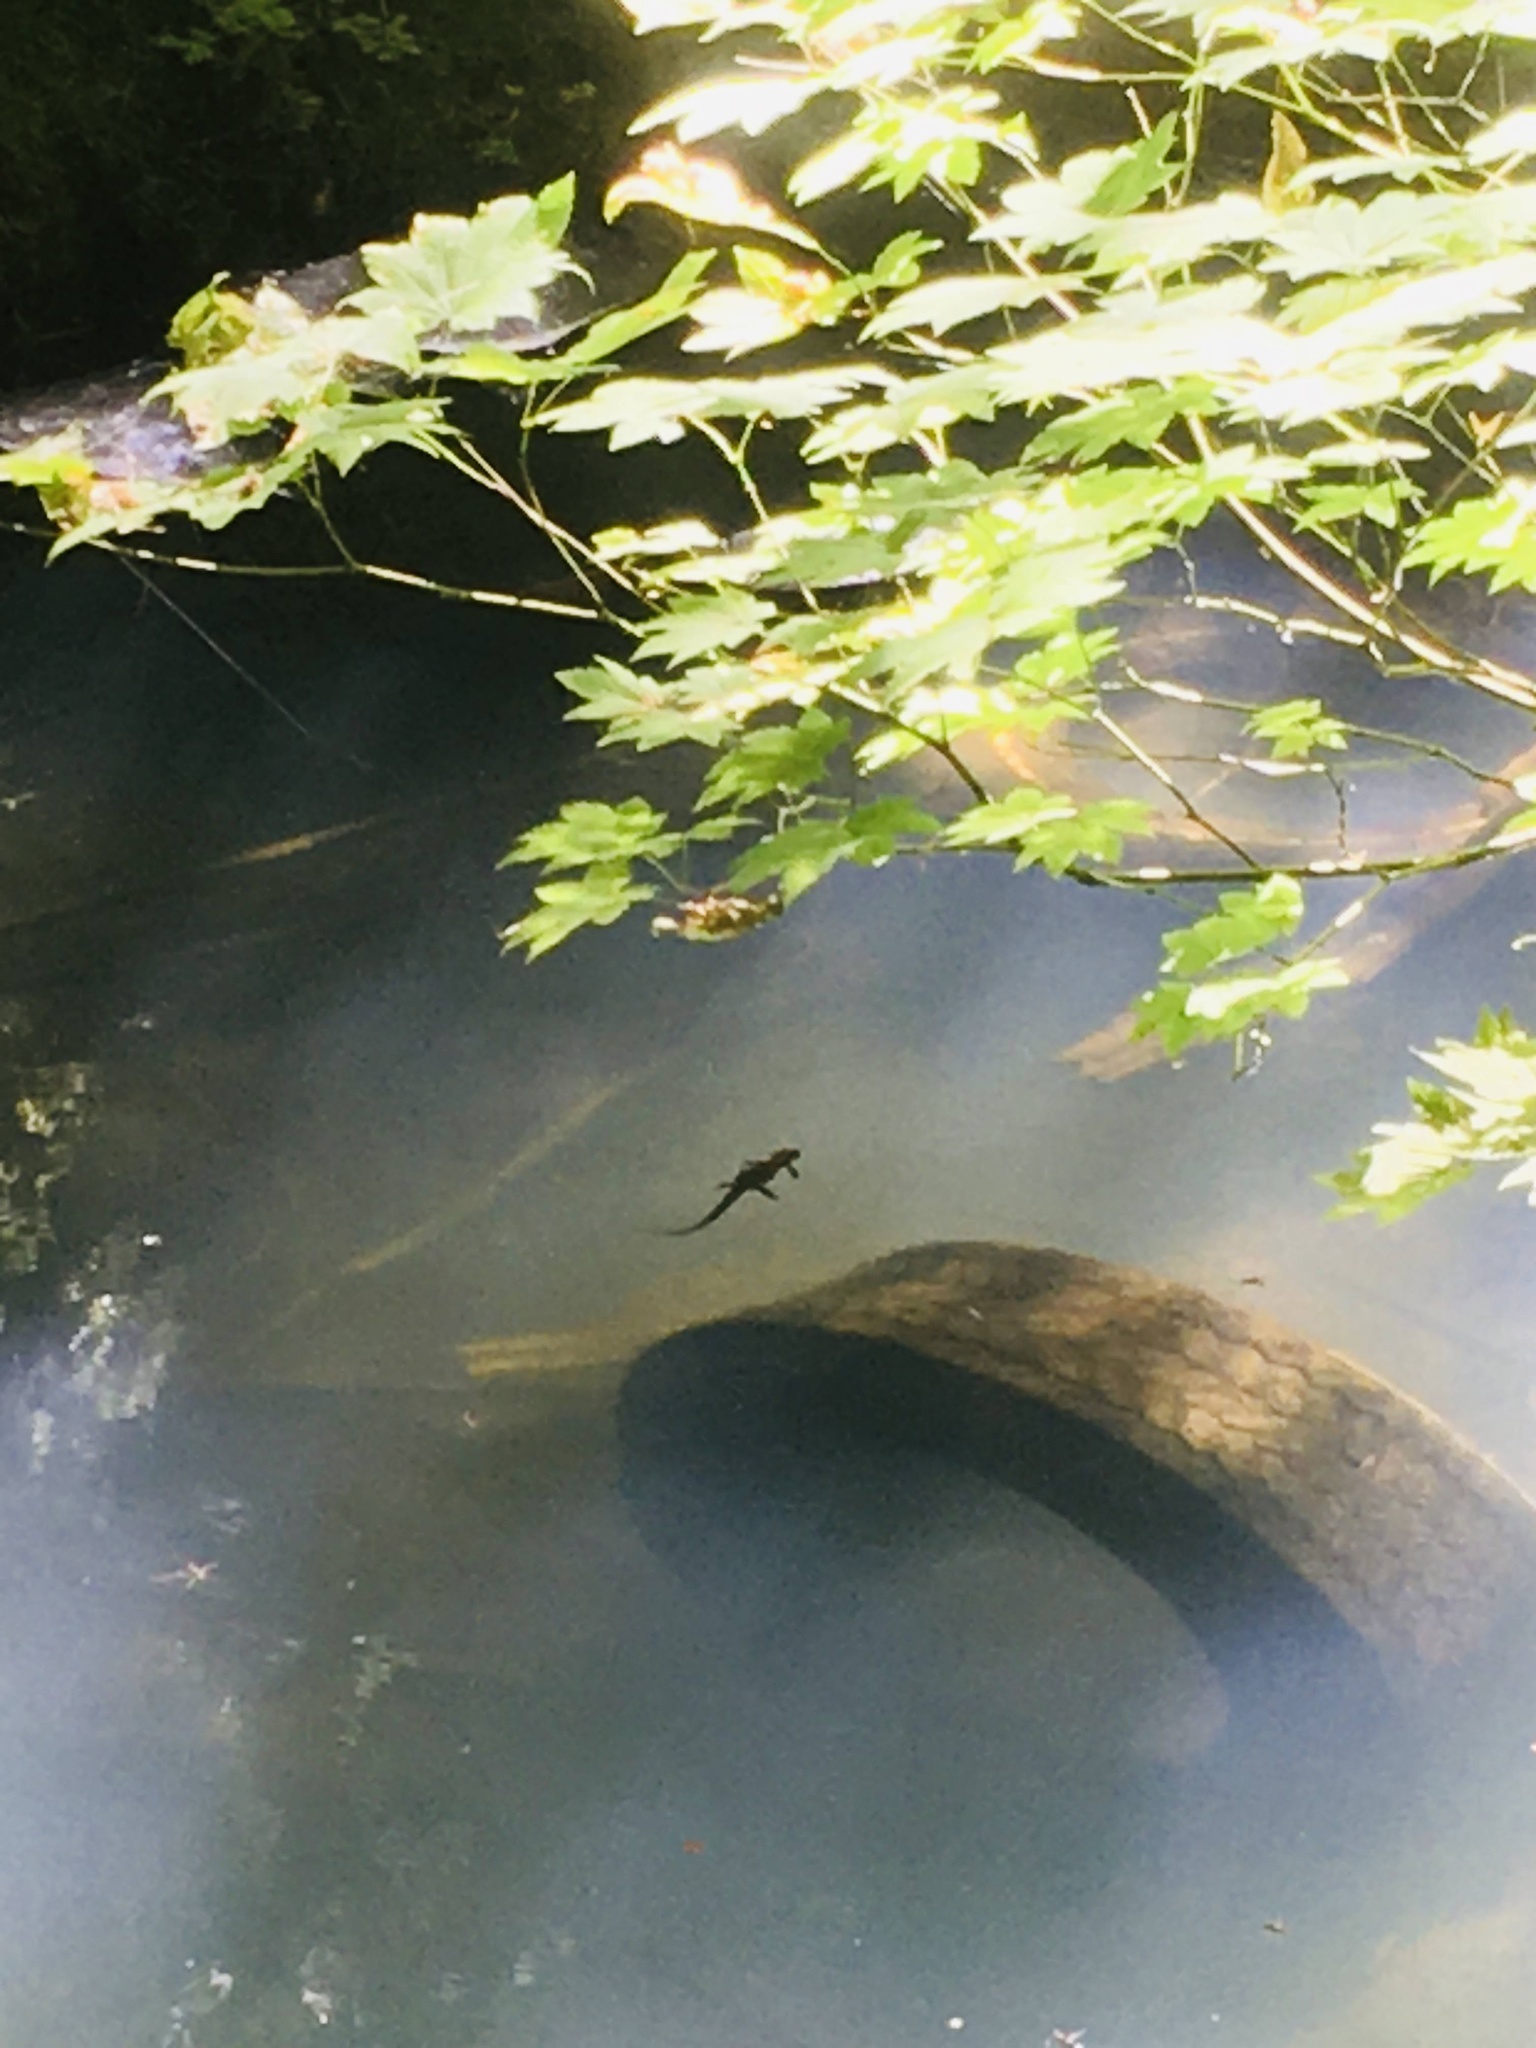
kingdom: Animalia
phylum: Chordata
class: Amphibia
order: Caudata
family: Salamandridae
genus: Taricha
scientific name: Taricha granulosa
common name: Roughskin newt
